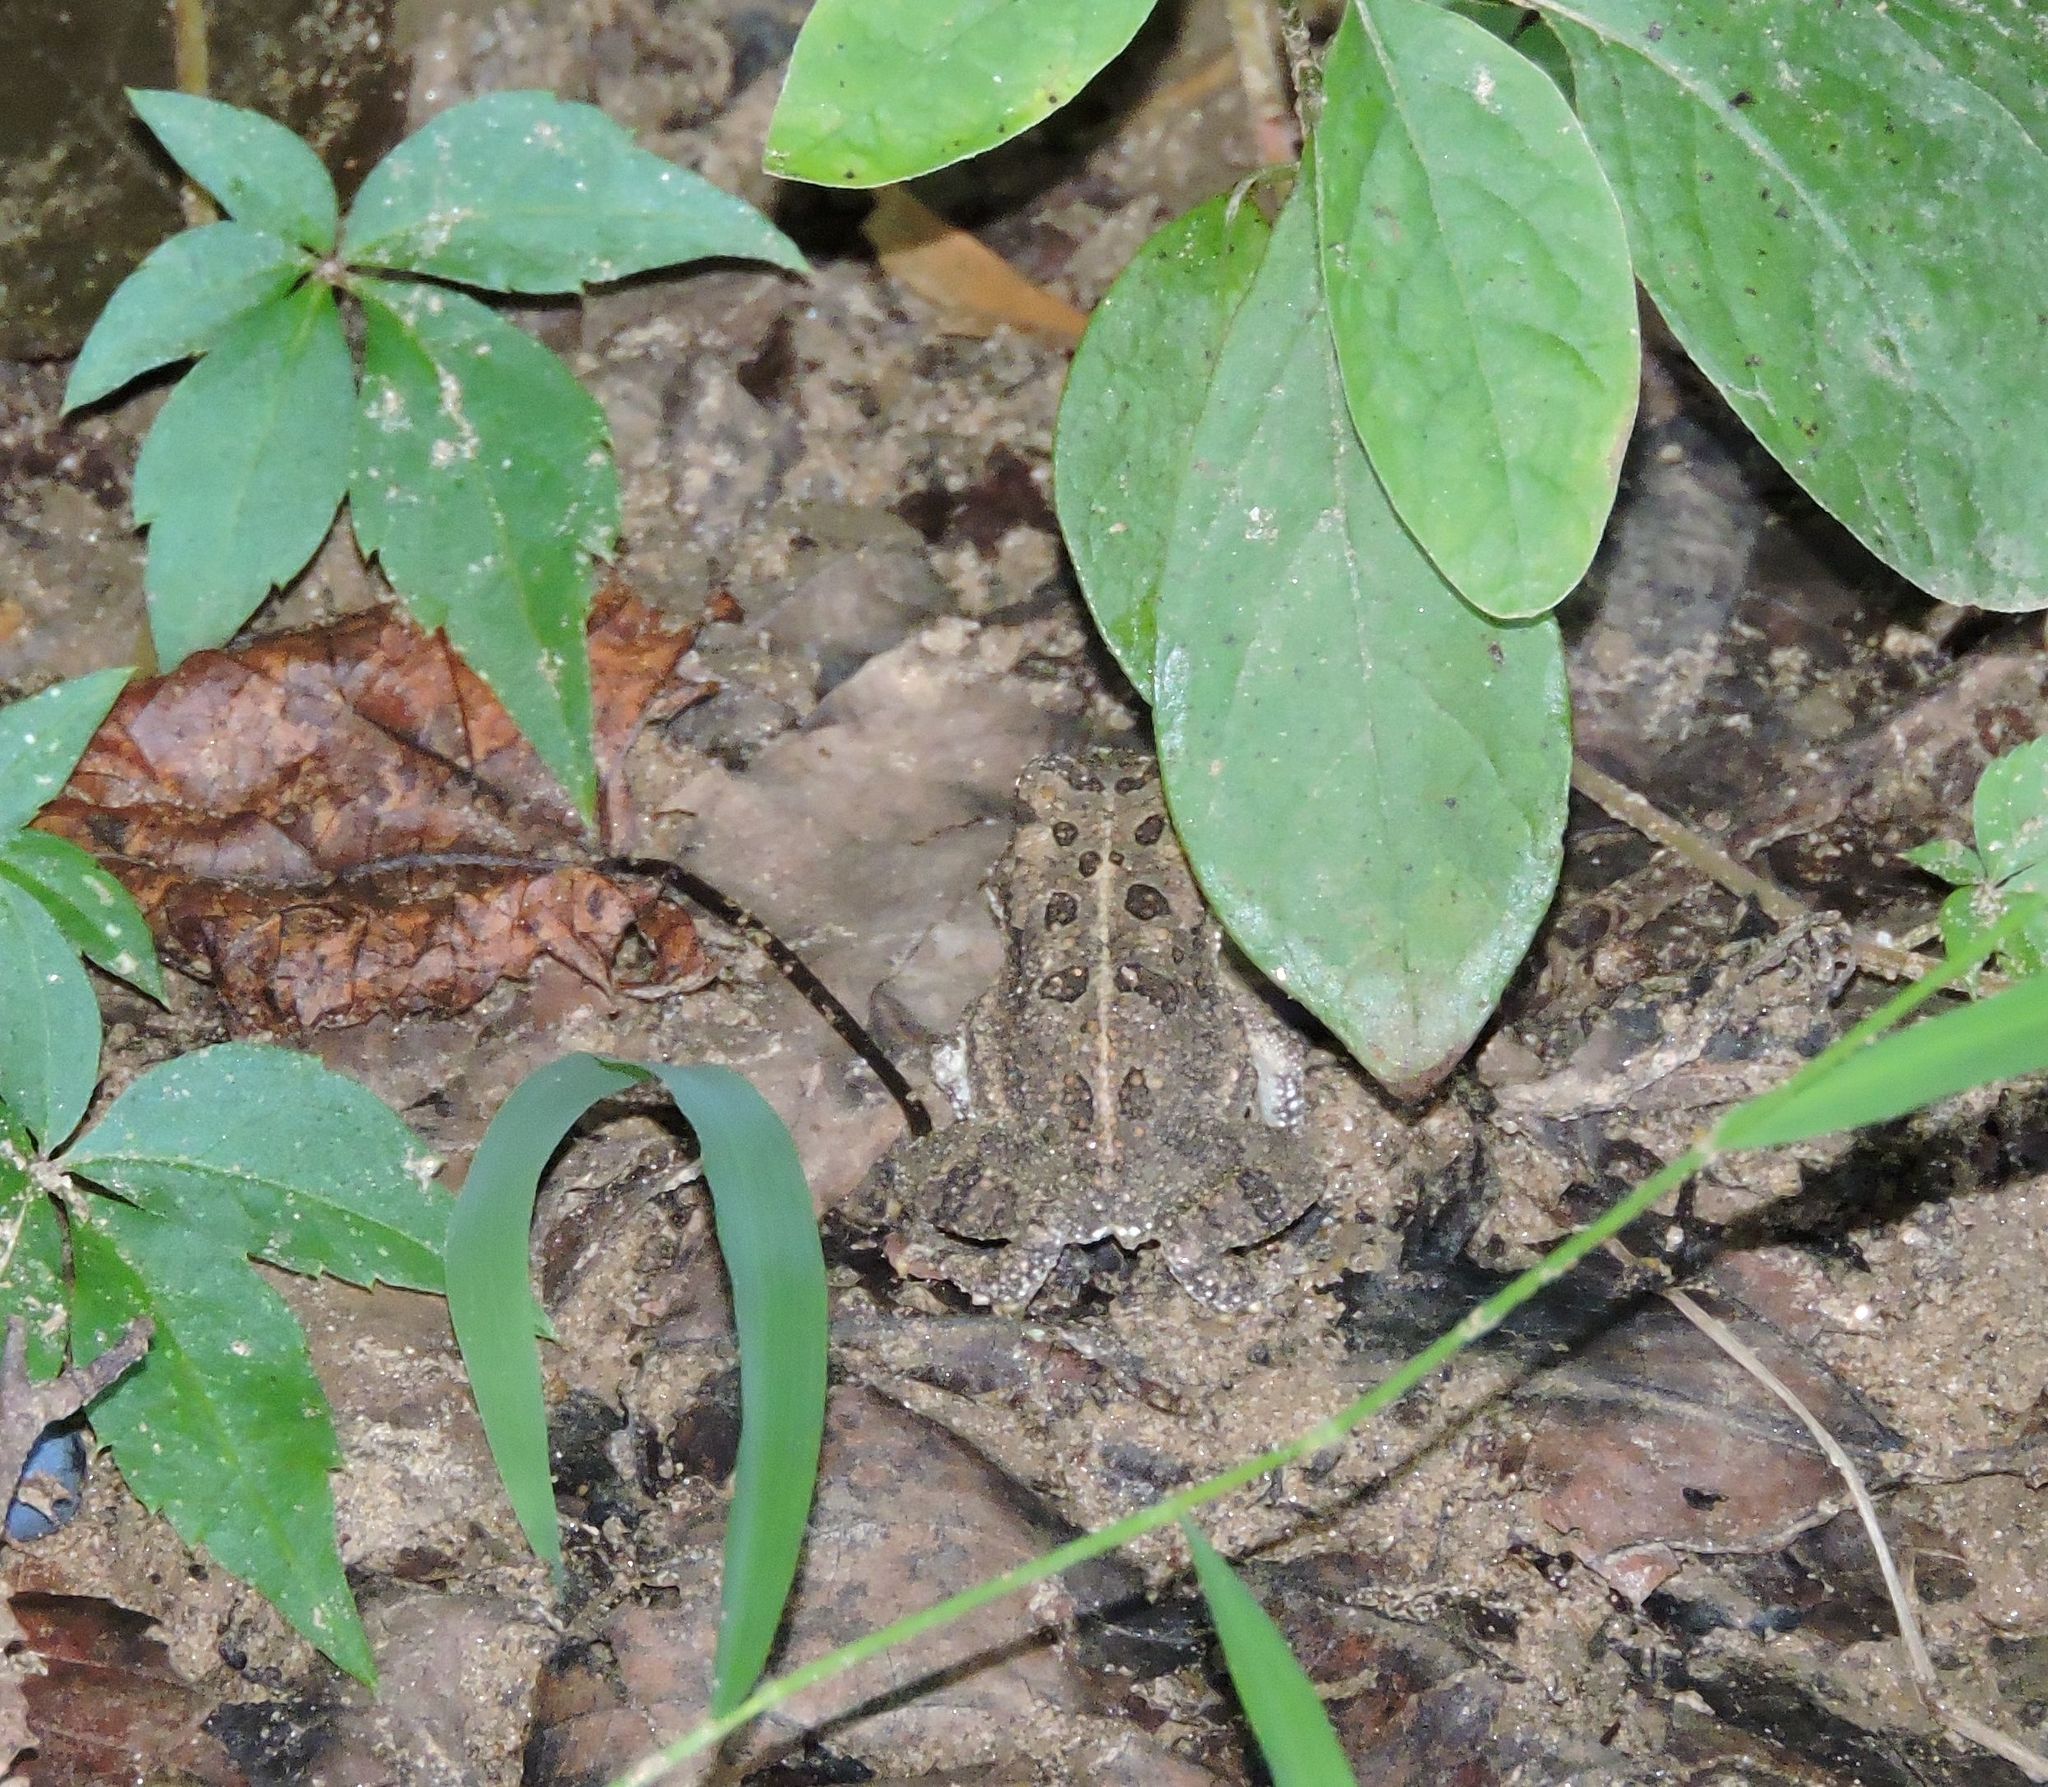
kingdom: Animalia
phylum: Chordata
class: Amphibia
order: Anura
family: Bufonidae
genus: Anaxyrus
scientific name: Anaxyrus fowleri
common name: Fowler's toad
